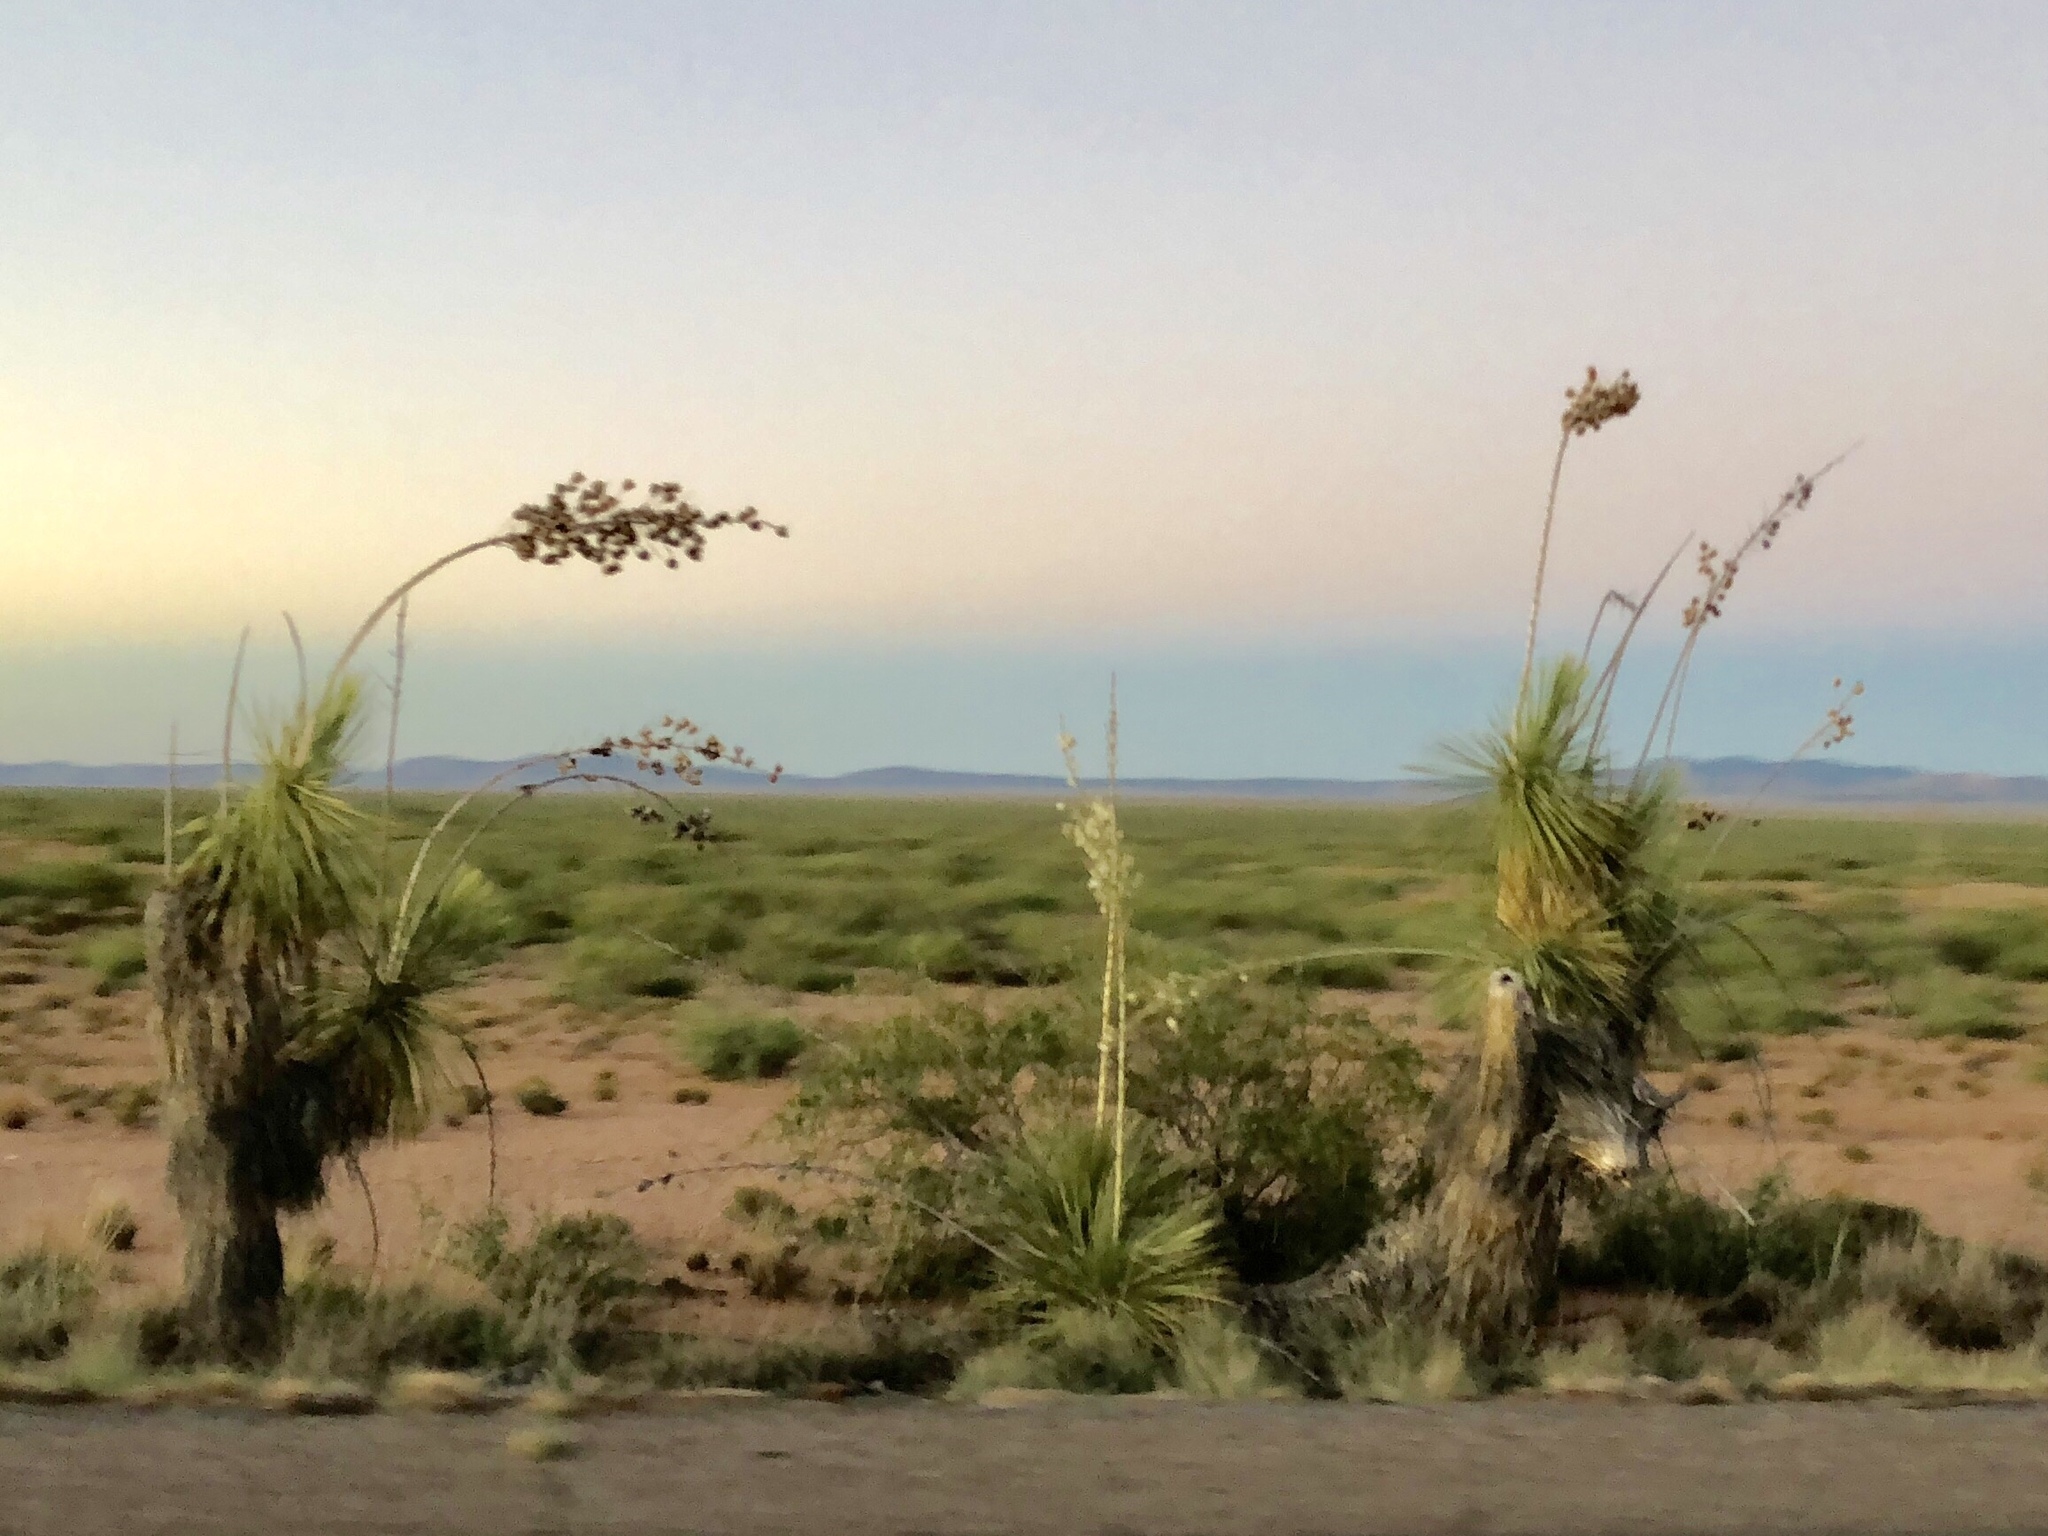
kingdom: Plantae
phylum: Tracheophyta
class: Liliopsida
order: Asparagales
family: Asparagaceae
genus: Yucca
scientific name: Yucca elata
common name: Palmella
